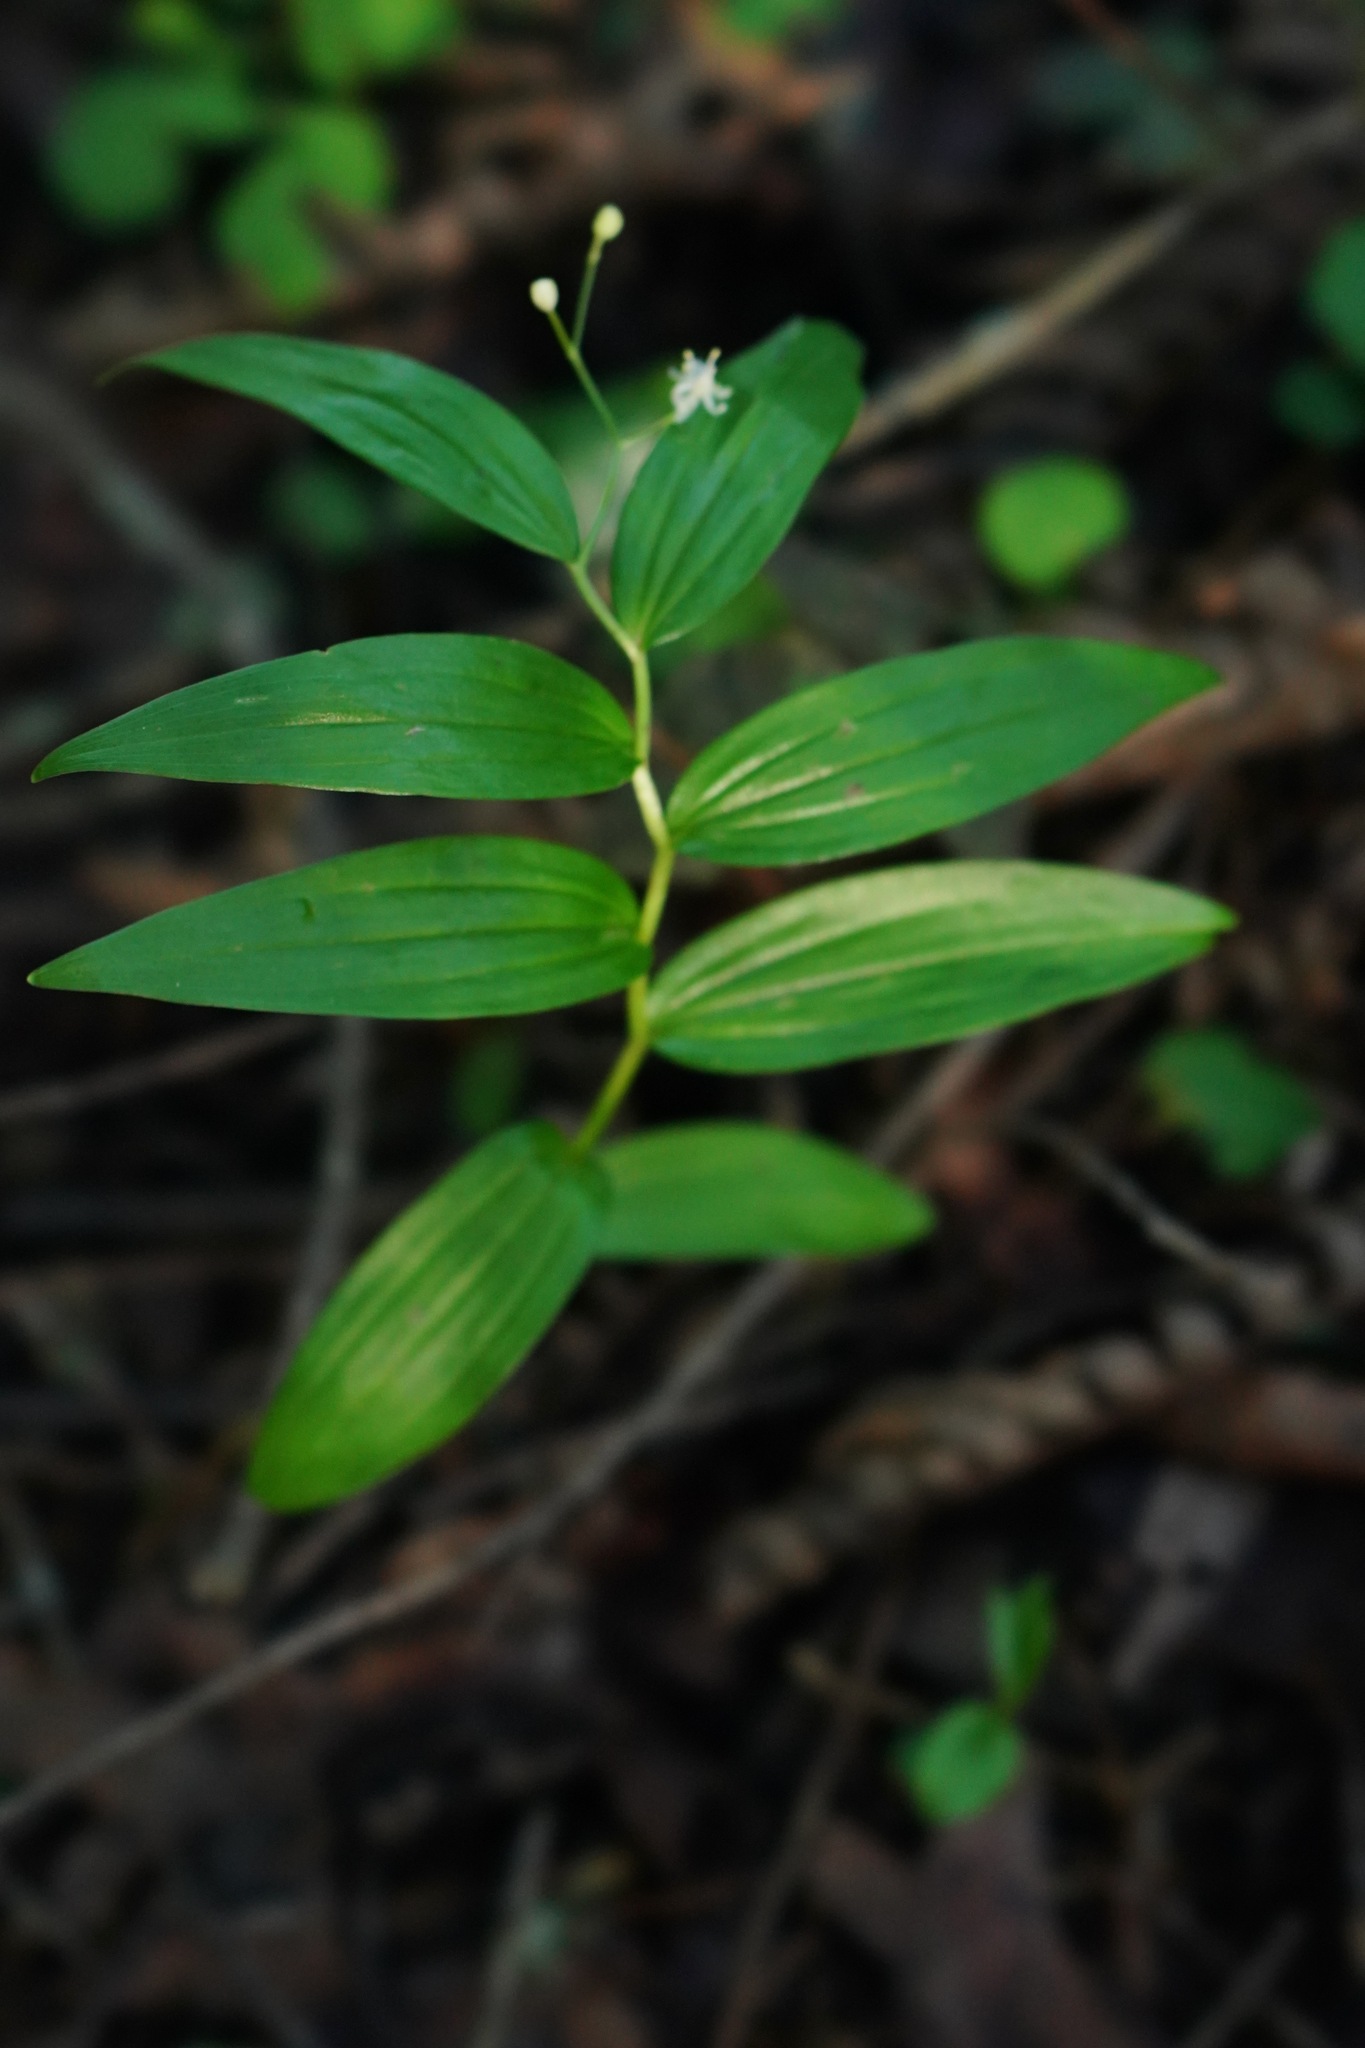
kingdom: Plantae
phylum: Tracheophyta
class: Liliopsida
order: Asparagales
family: Asparagaceae
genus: Maianthemum
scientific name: Maianthemum stellatum
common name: Little false solomon's seal
